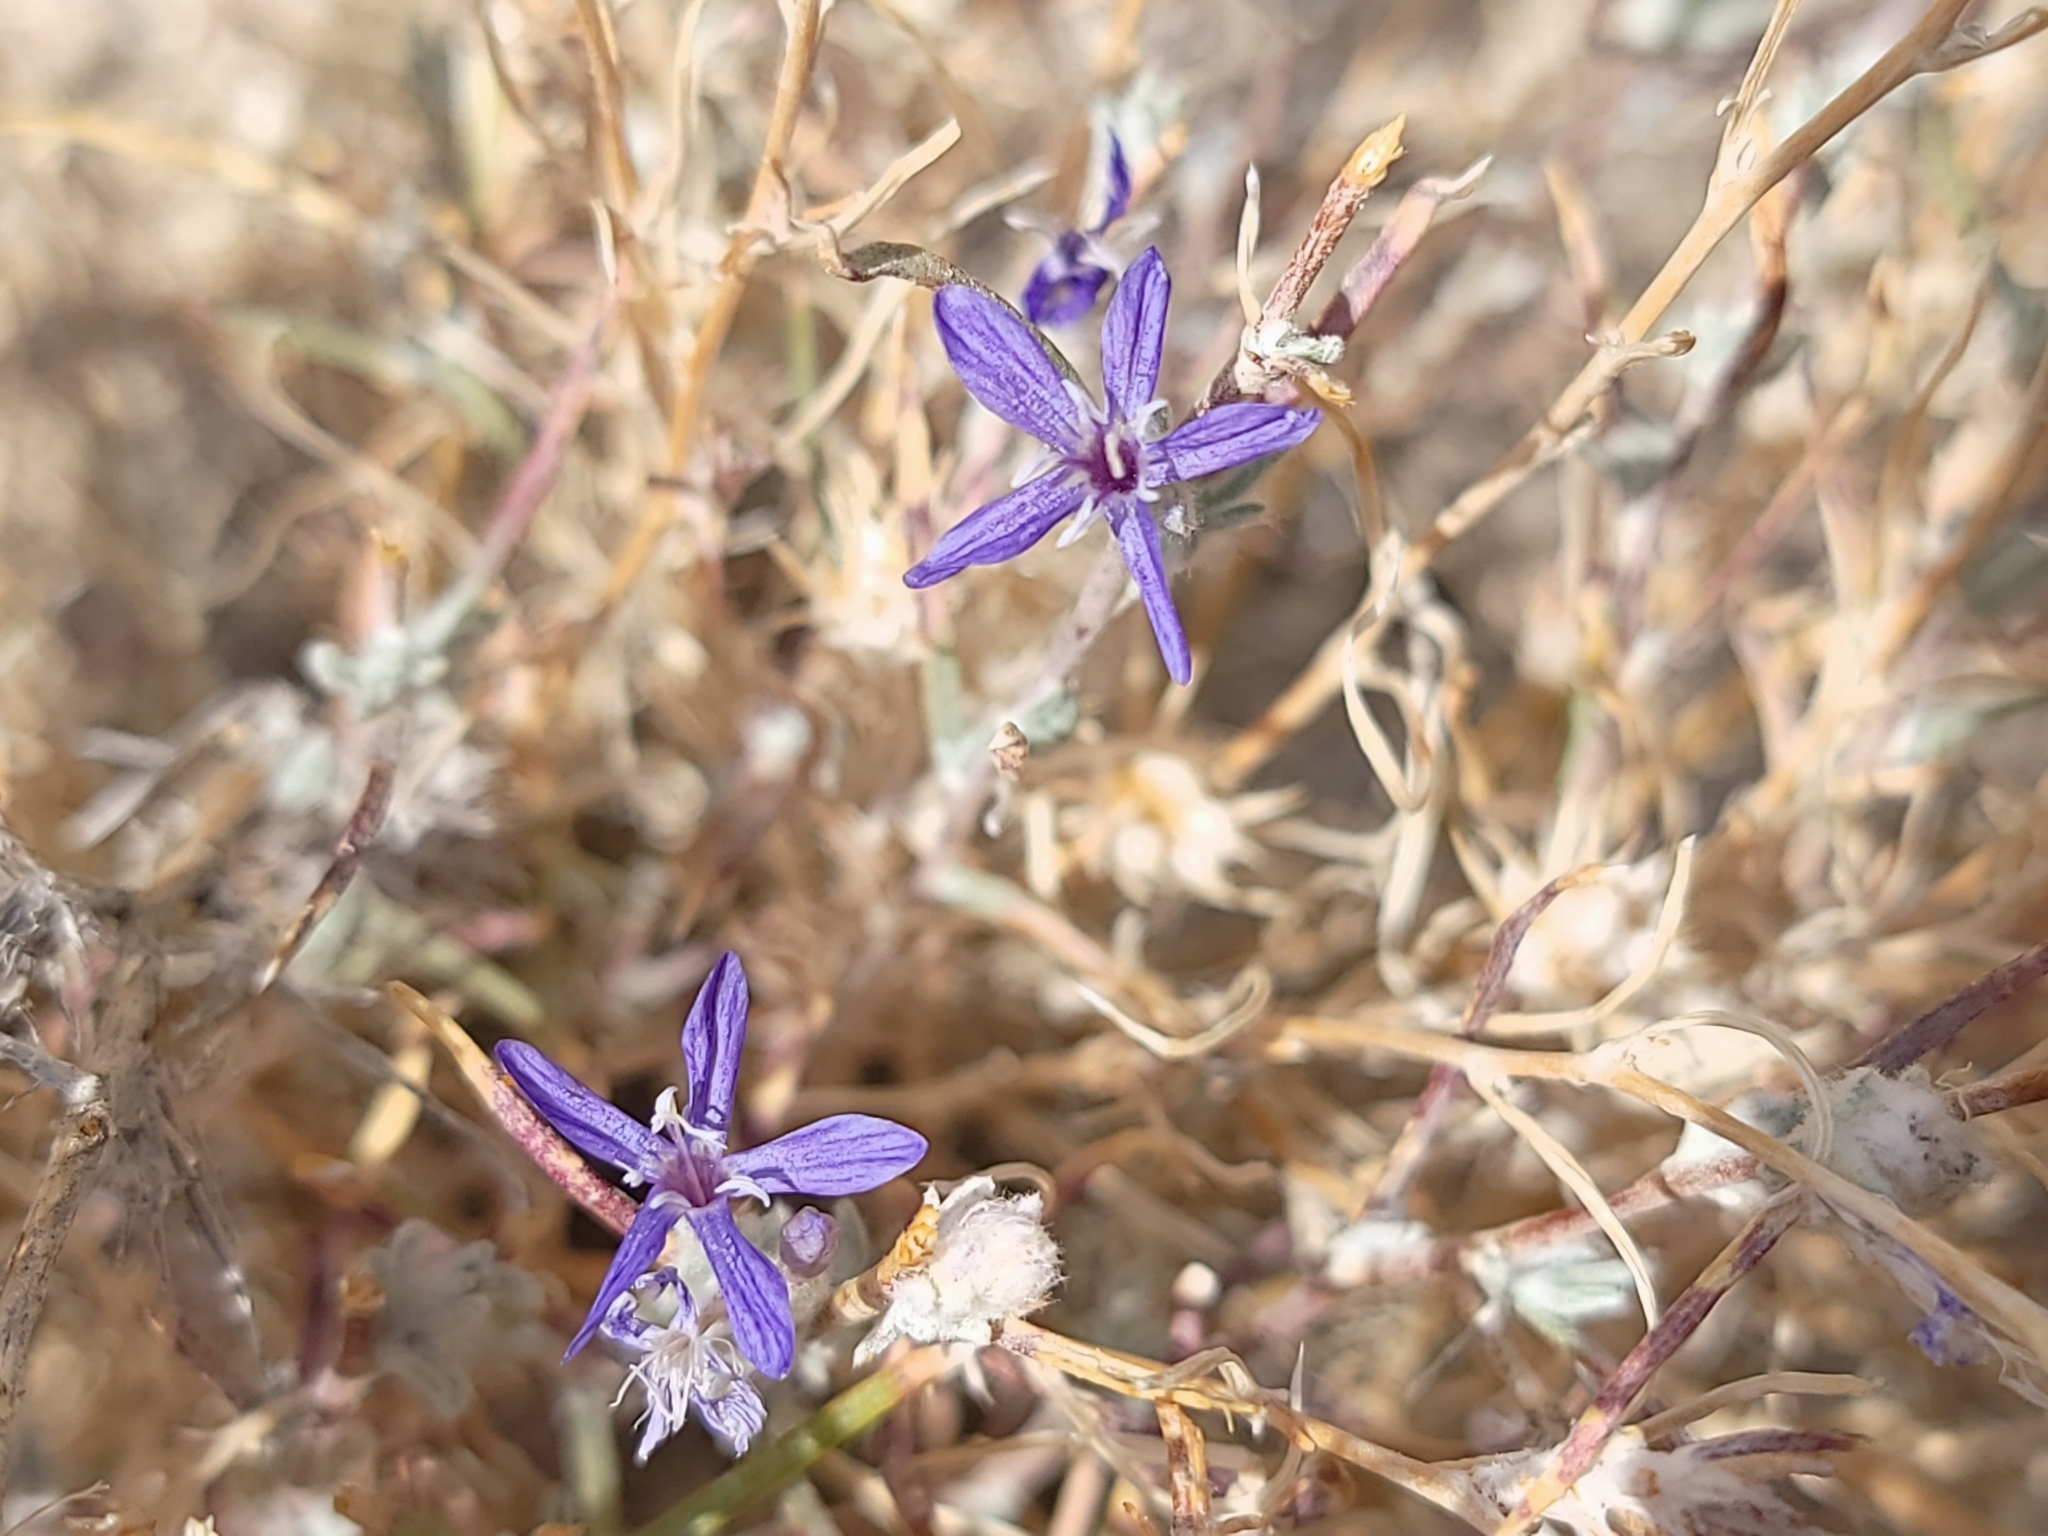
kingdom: Plantae
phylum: Tracheophyta
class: Magnoliopsida
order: Ericales
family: Polemoniaceae
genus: Eriastrum
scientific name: Eriastrum densifolium
